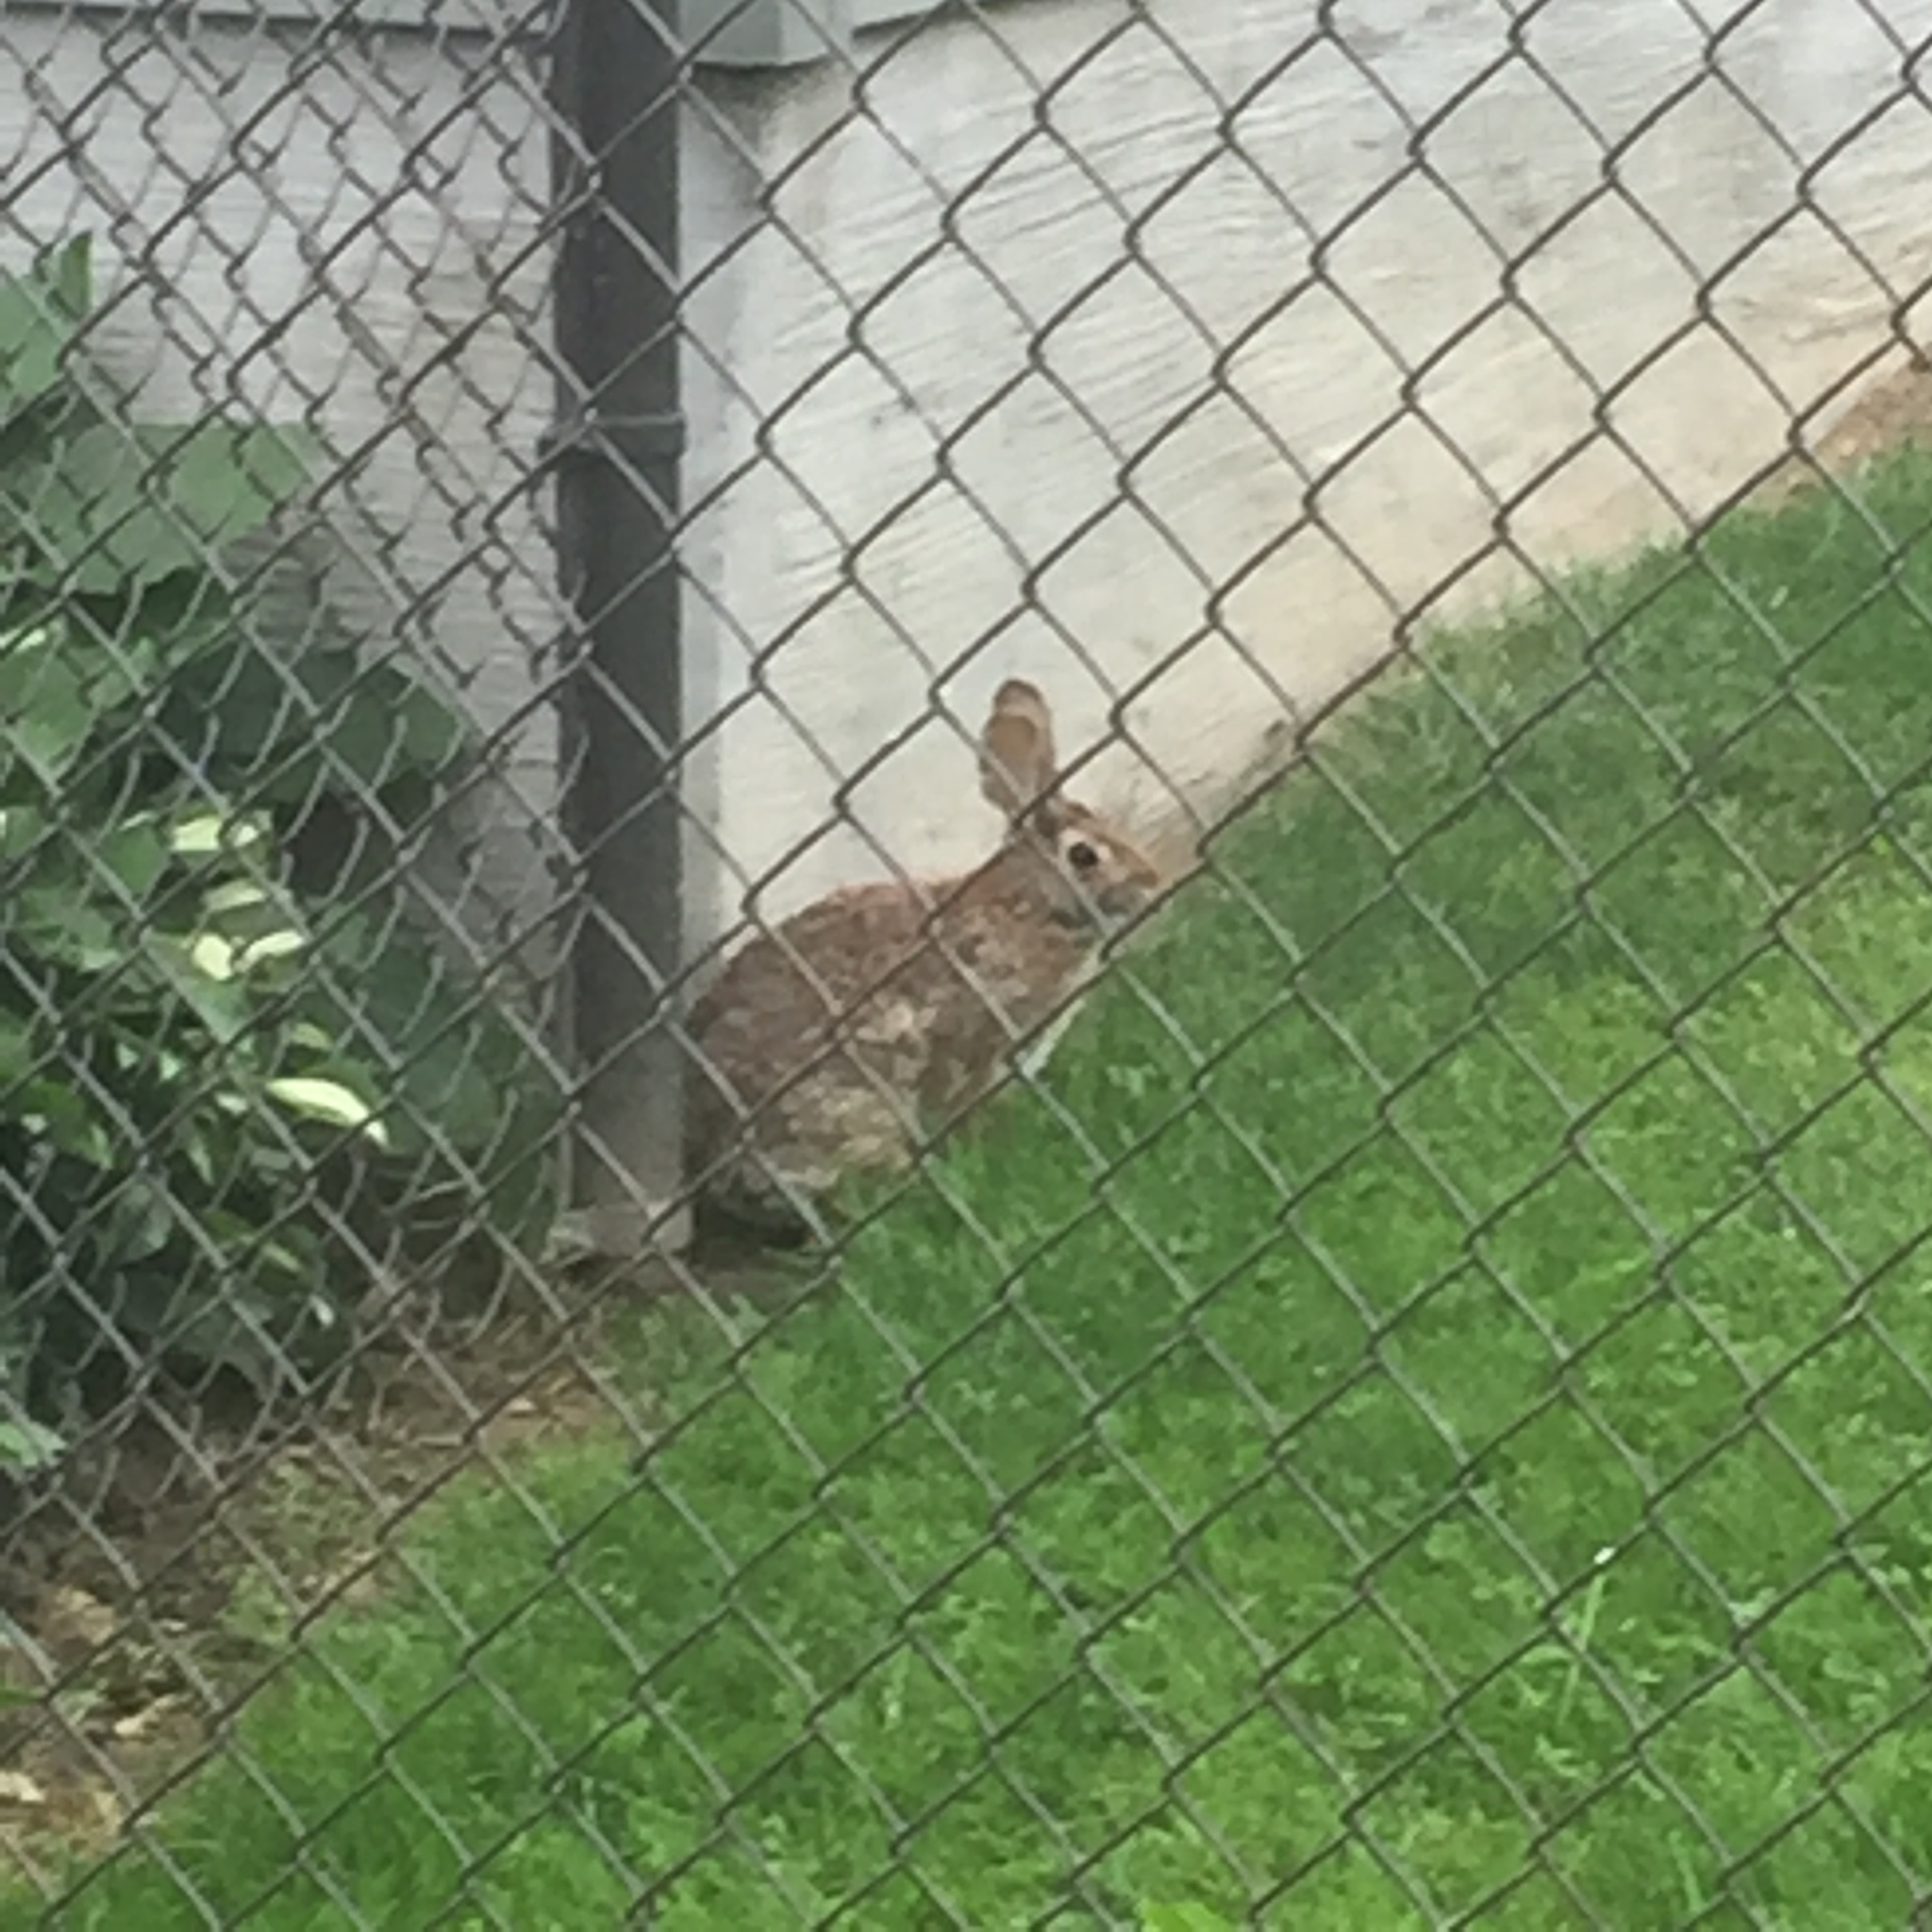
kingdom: Animalia
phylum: Chordata
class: Mammalia
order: Lagomorpha
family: Leporidae
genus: Sylvilagus
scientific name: Sylvilagus floridanus
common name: Eastern cottontail
